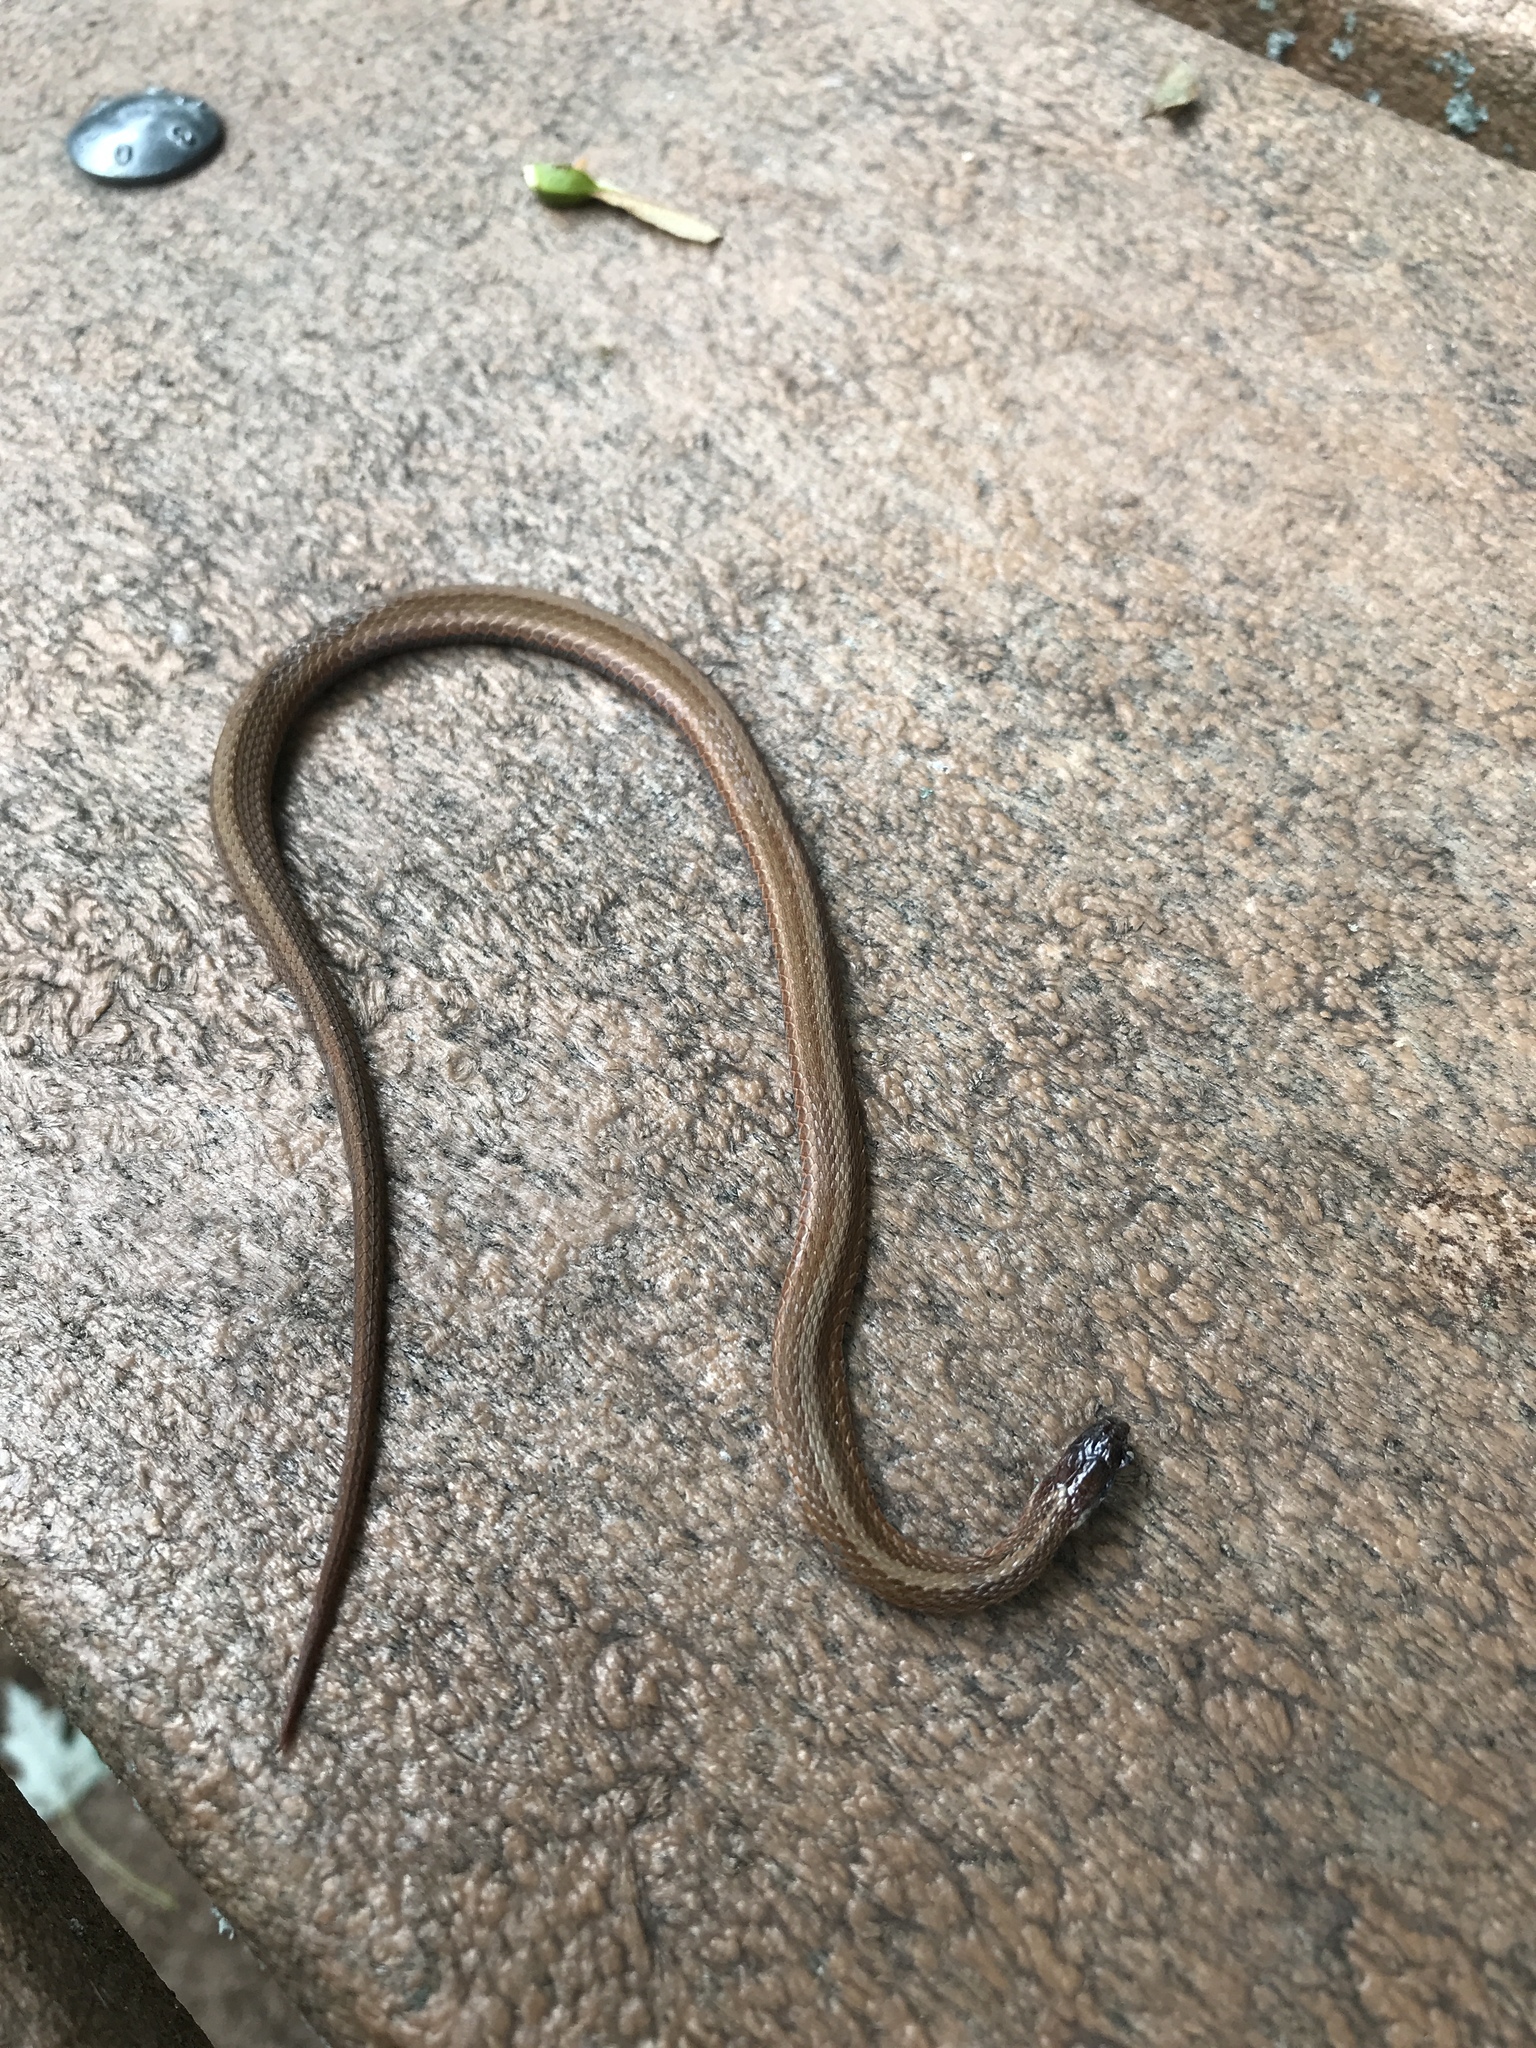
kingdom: Animalia
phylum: Chordata
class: Squamata
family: Colubridae
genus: Storeria
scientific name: Storeria occipitomaculata
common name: Redbelly snake
